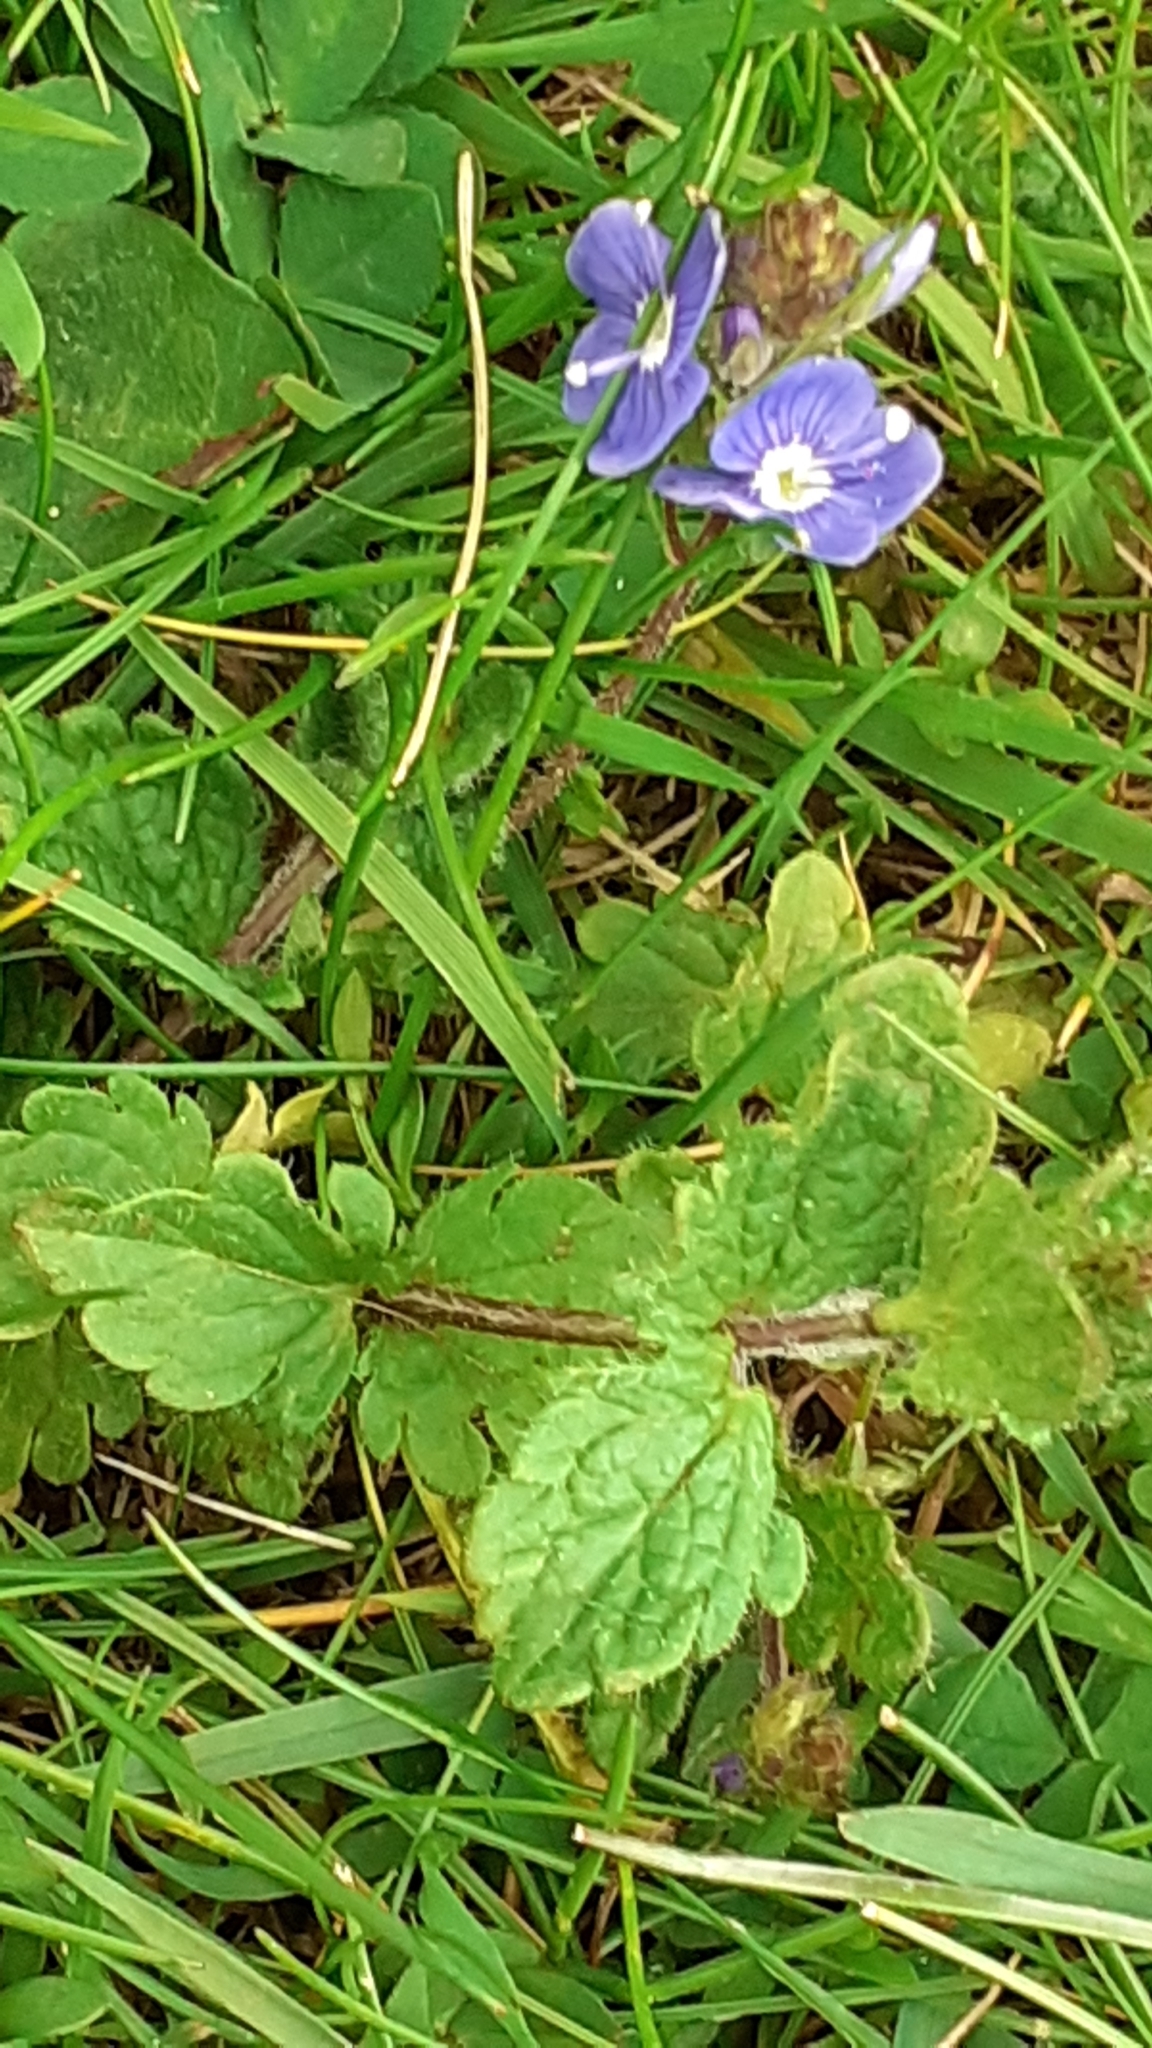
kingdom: Plantae
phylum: Tracheophyta
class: Magnoliopsida
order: Lamiales
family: Plantaginaceae
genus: Veronica
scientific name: Veronica chamaedrys
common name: Germander speedwell
